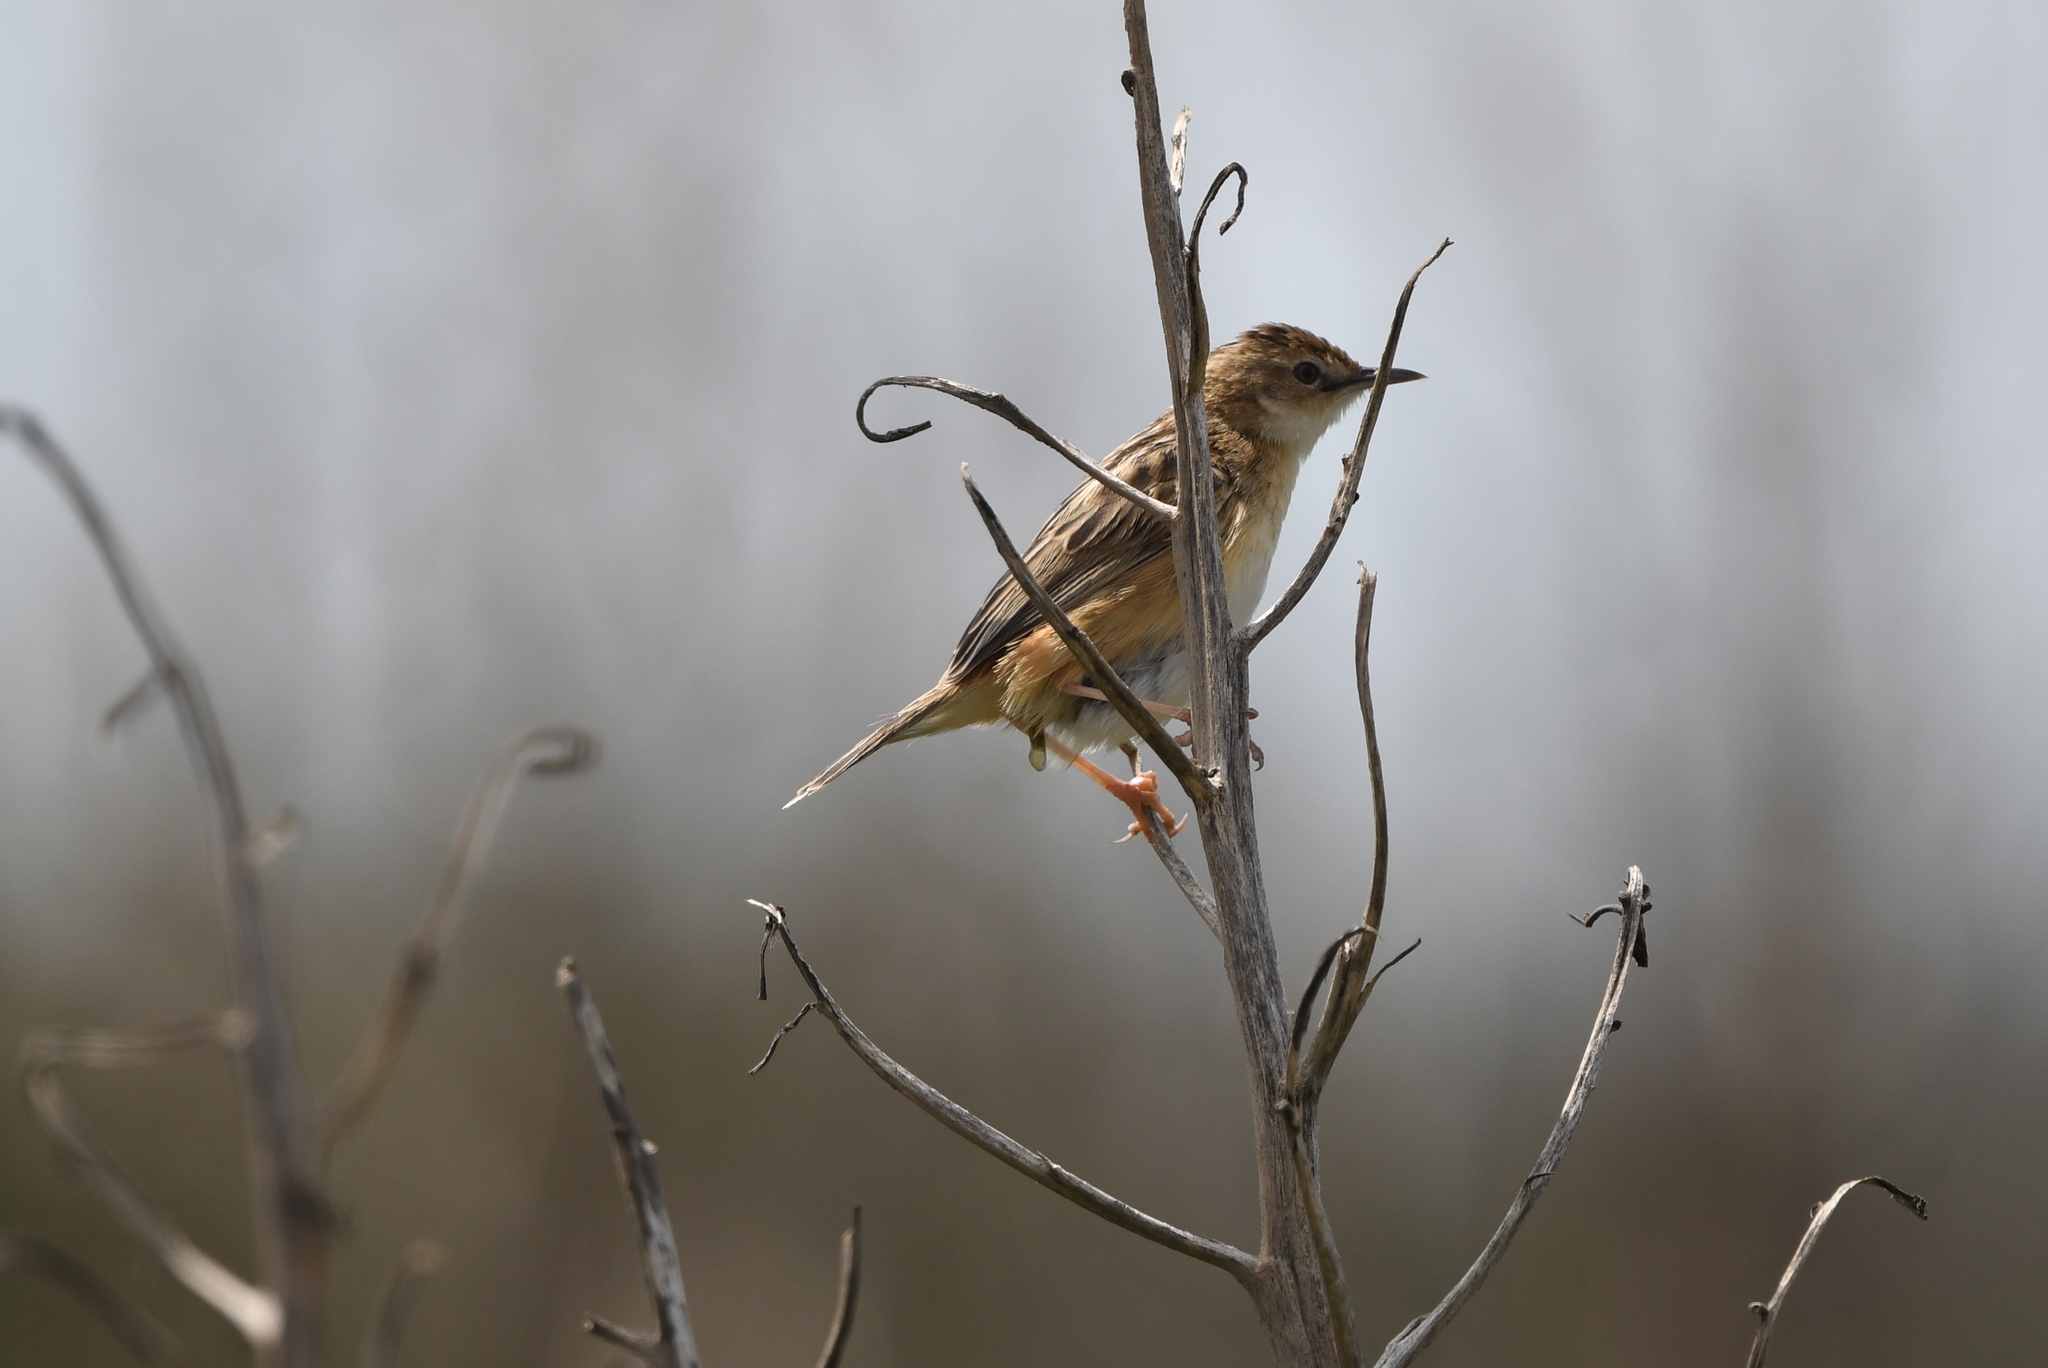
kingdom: Animalia
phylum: Chordata
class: Aves
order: Passeriformes
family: Cisticolidae
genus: Cisticola
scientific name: Cisticola juncidis
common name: Zitting cisticola
